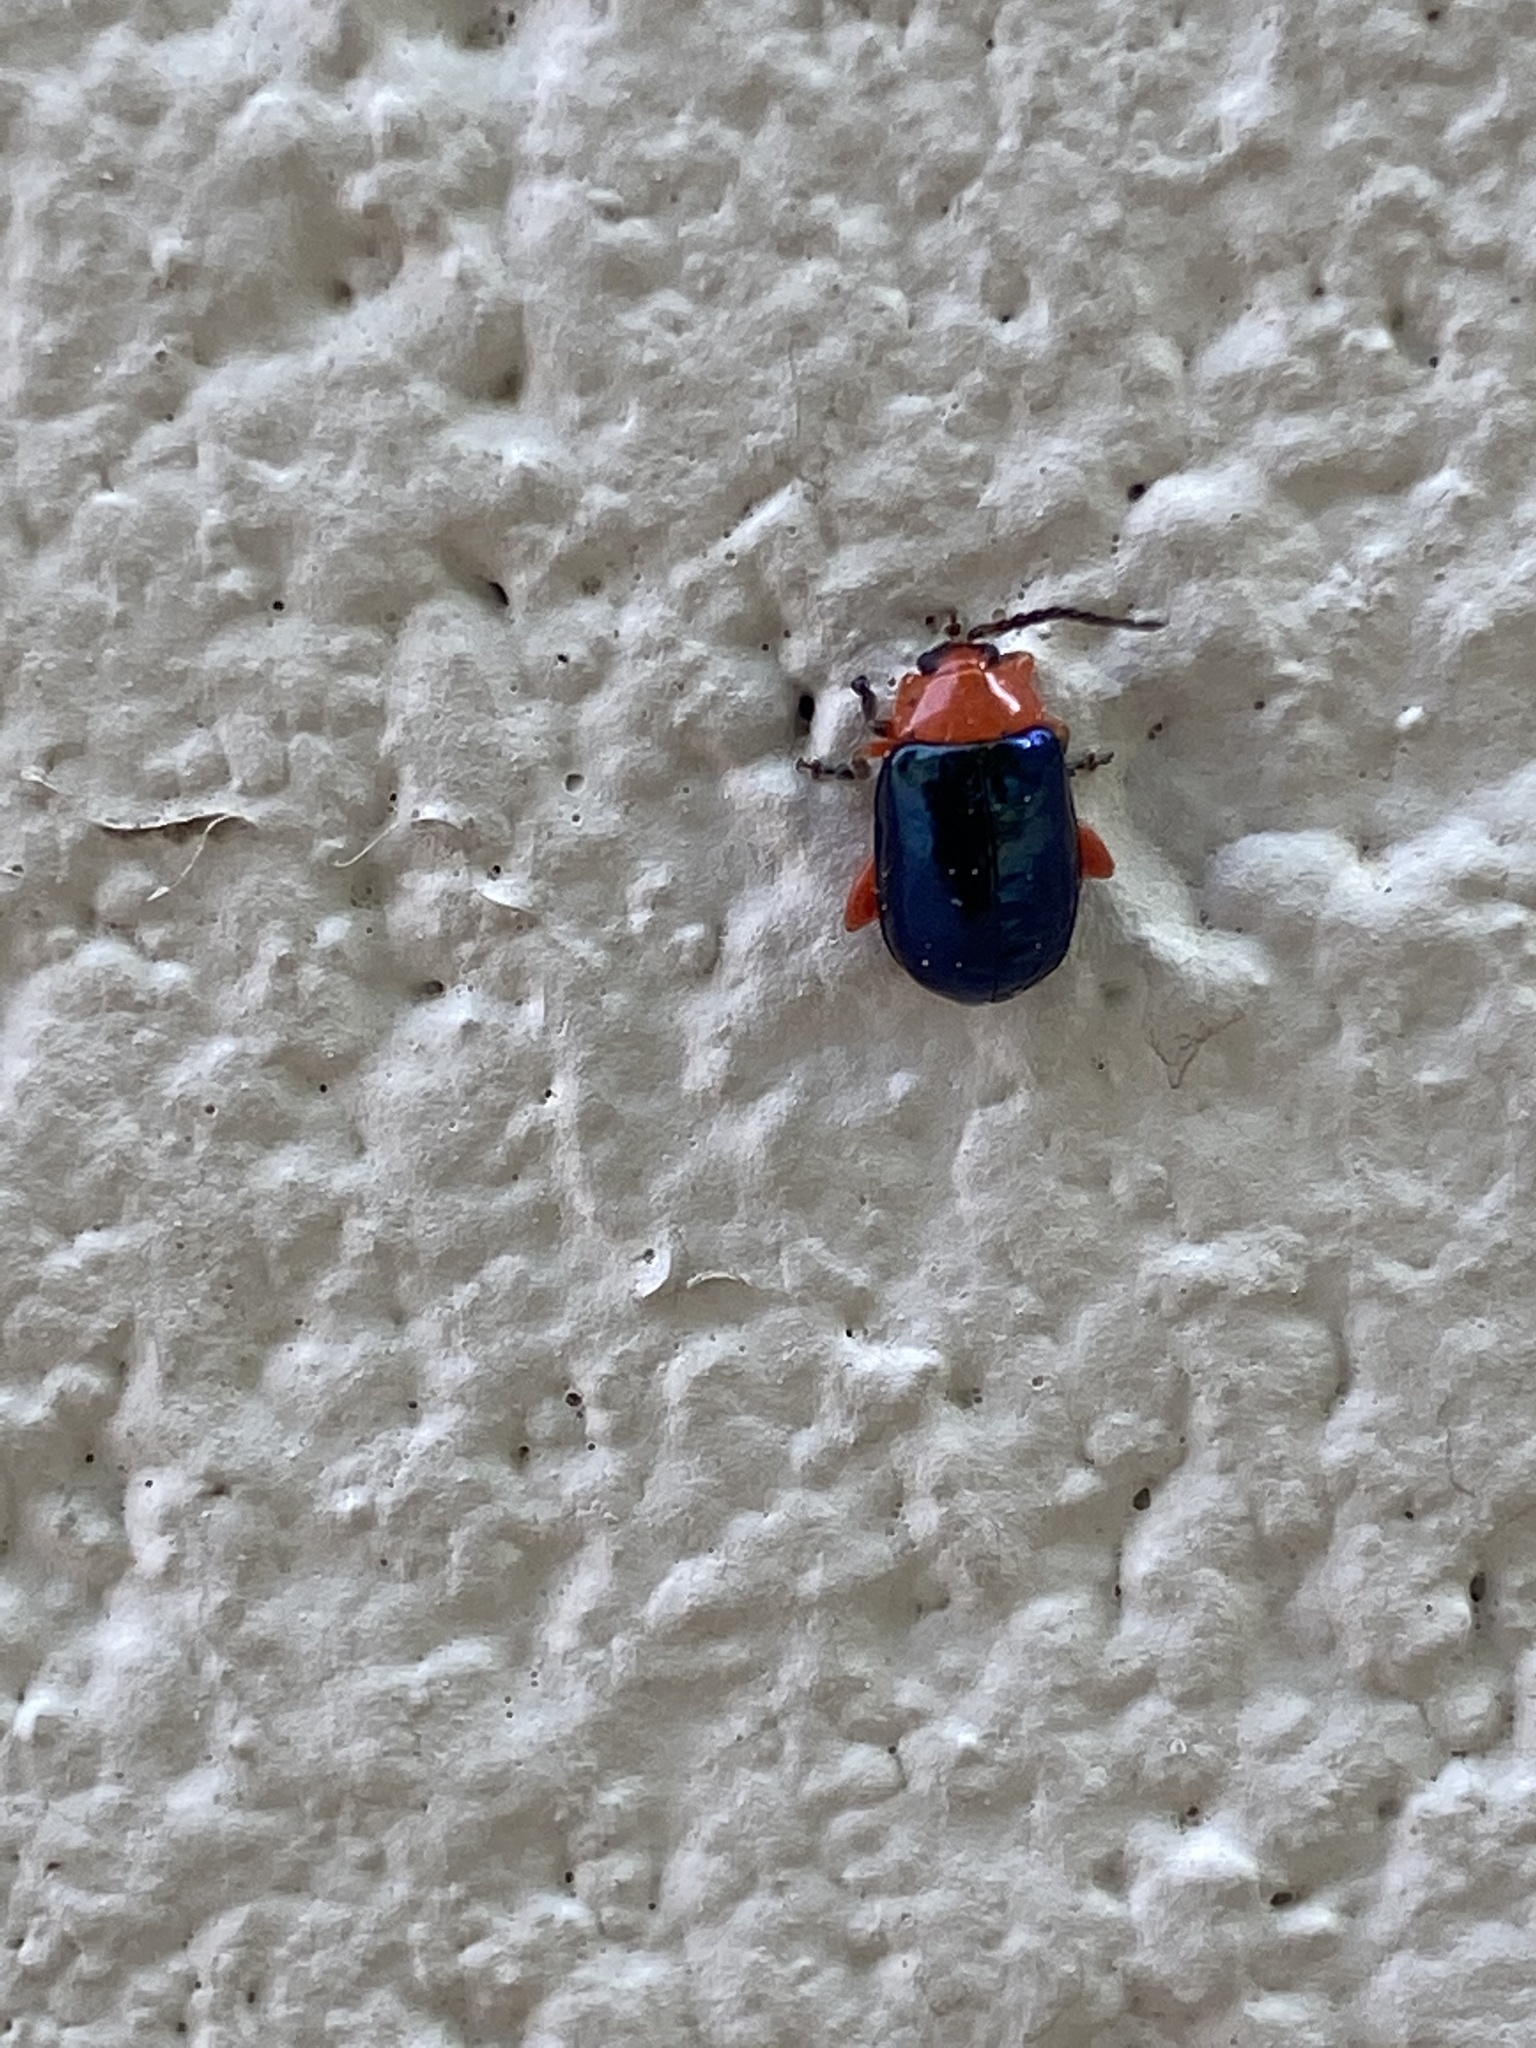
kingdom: Animalia
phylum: Arthropoda
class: Insecta
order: Coleoptera
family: Chrysomelidae
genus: Asphaera
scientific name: Asphaera lustrans
